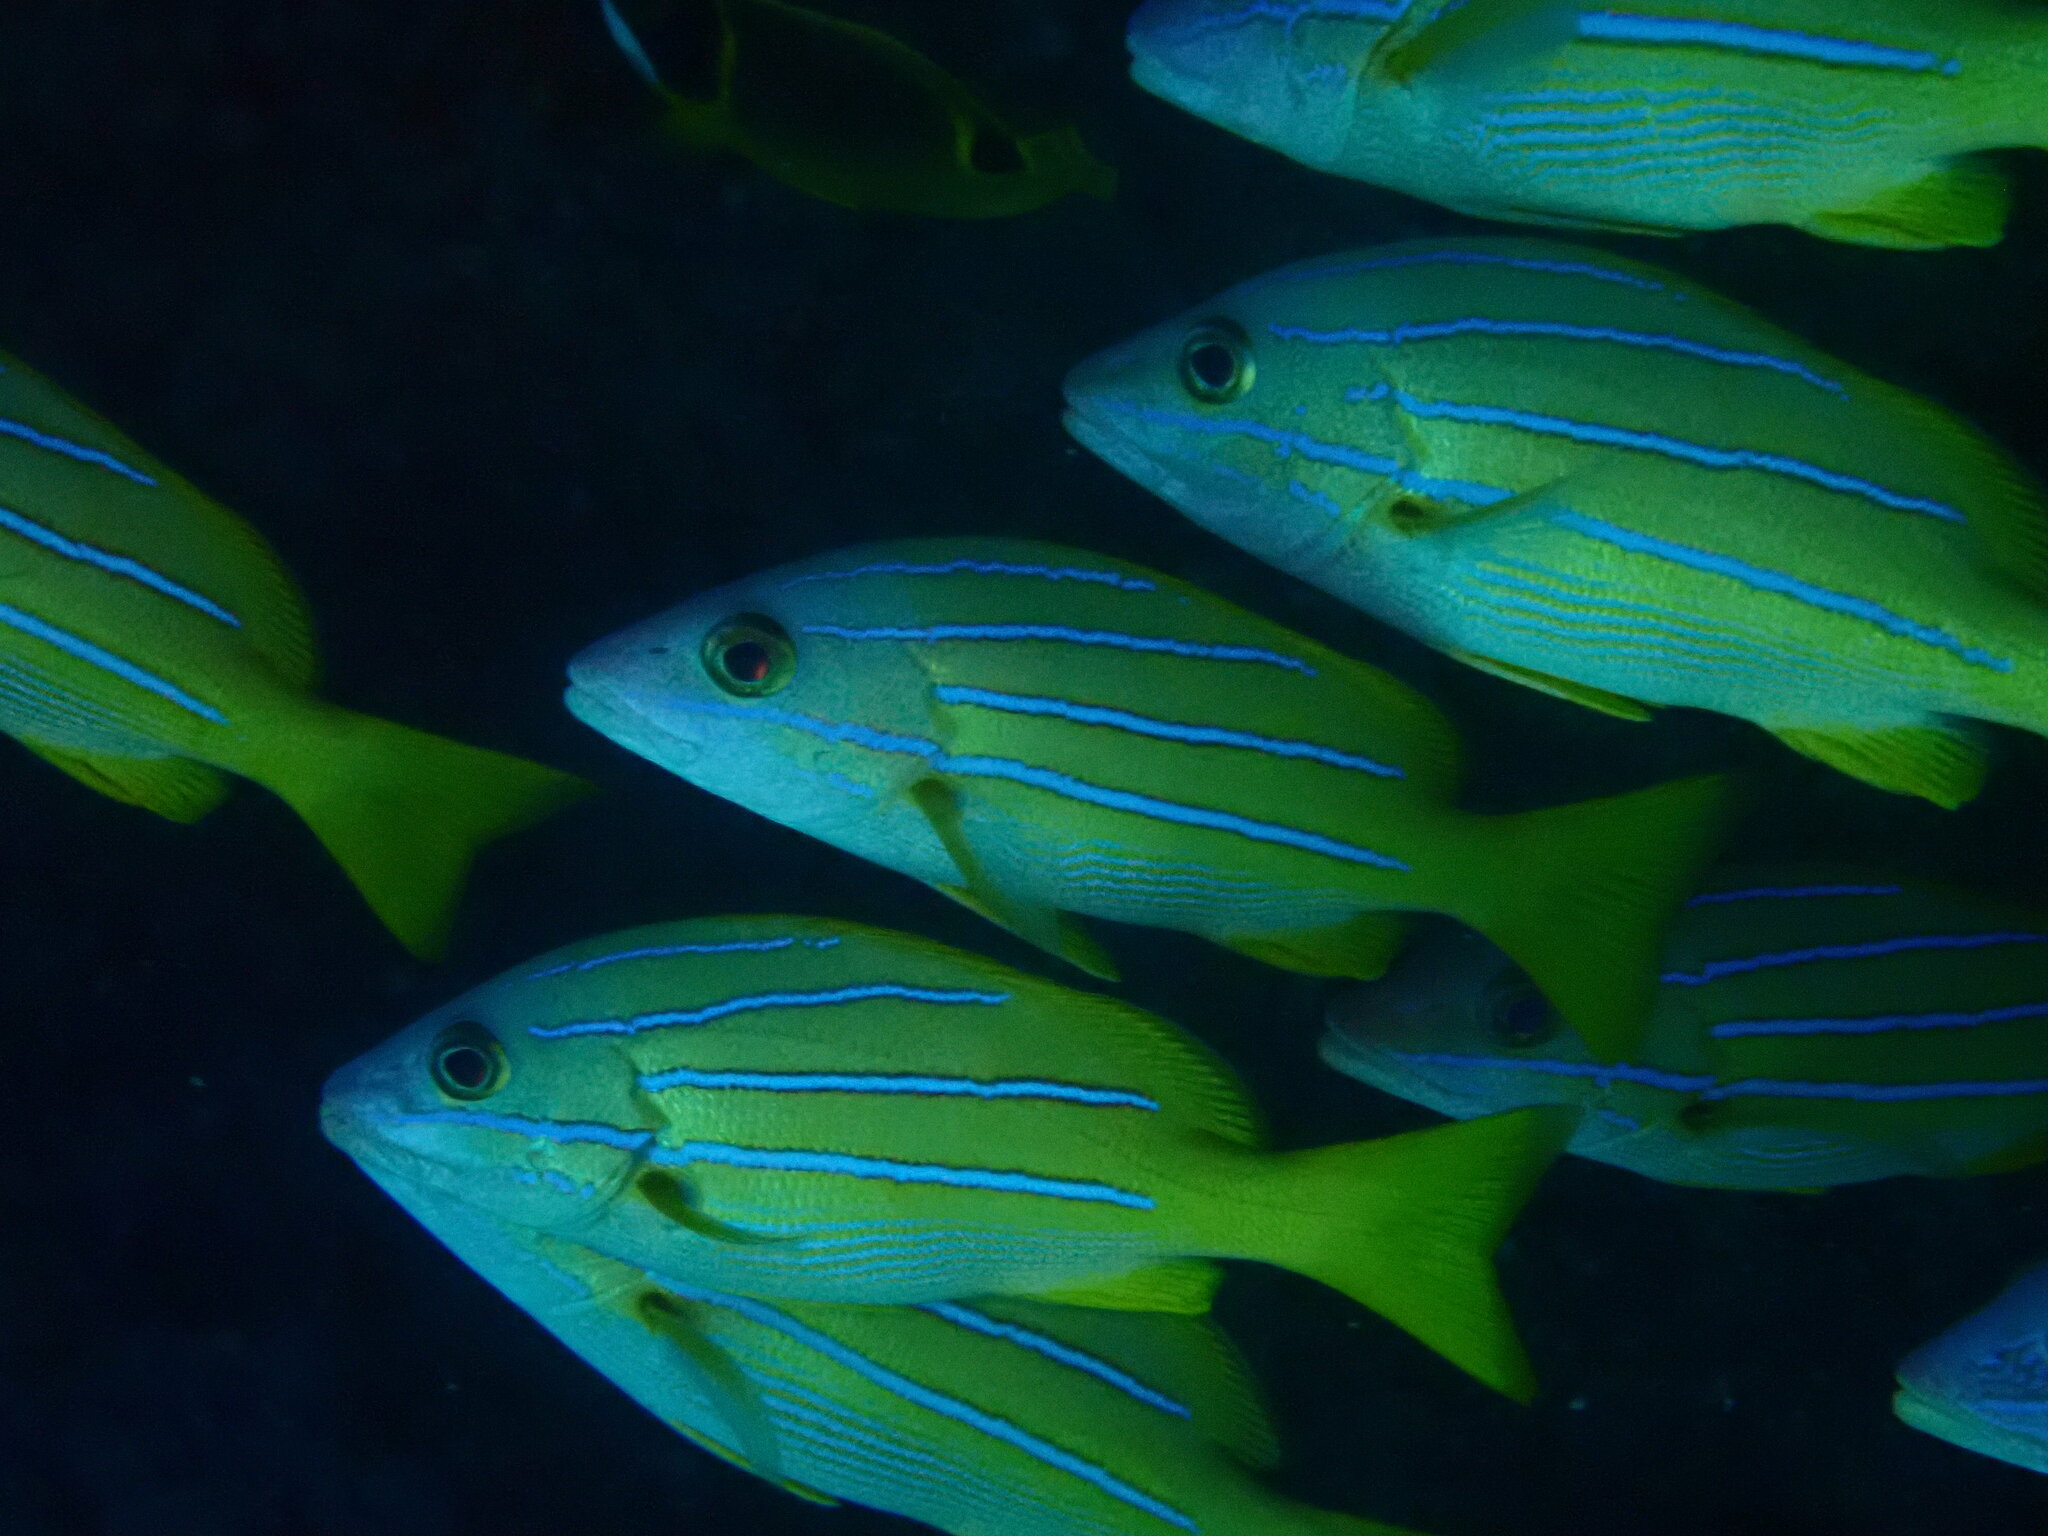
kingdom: Animalia
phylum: Chordata
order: Perciformes
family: Lutjanidae
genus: Lutjanus
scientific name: Lutjanus kasmira
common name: Common bluestripe snapper
